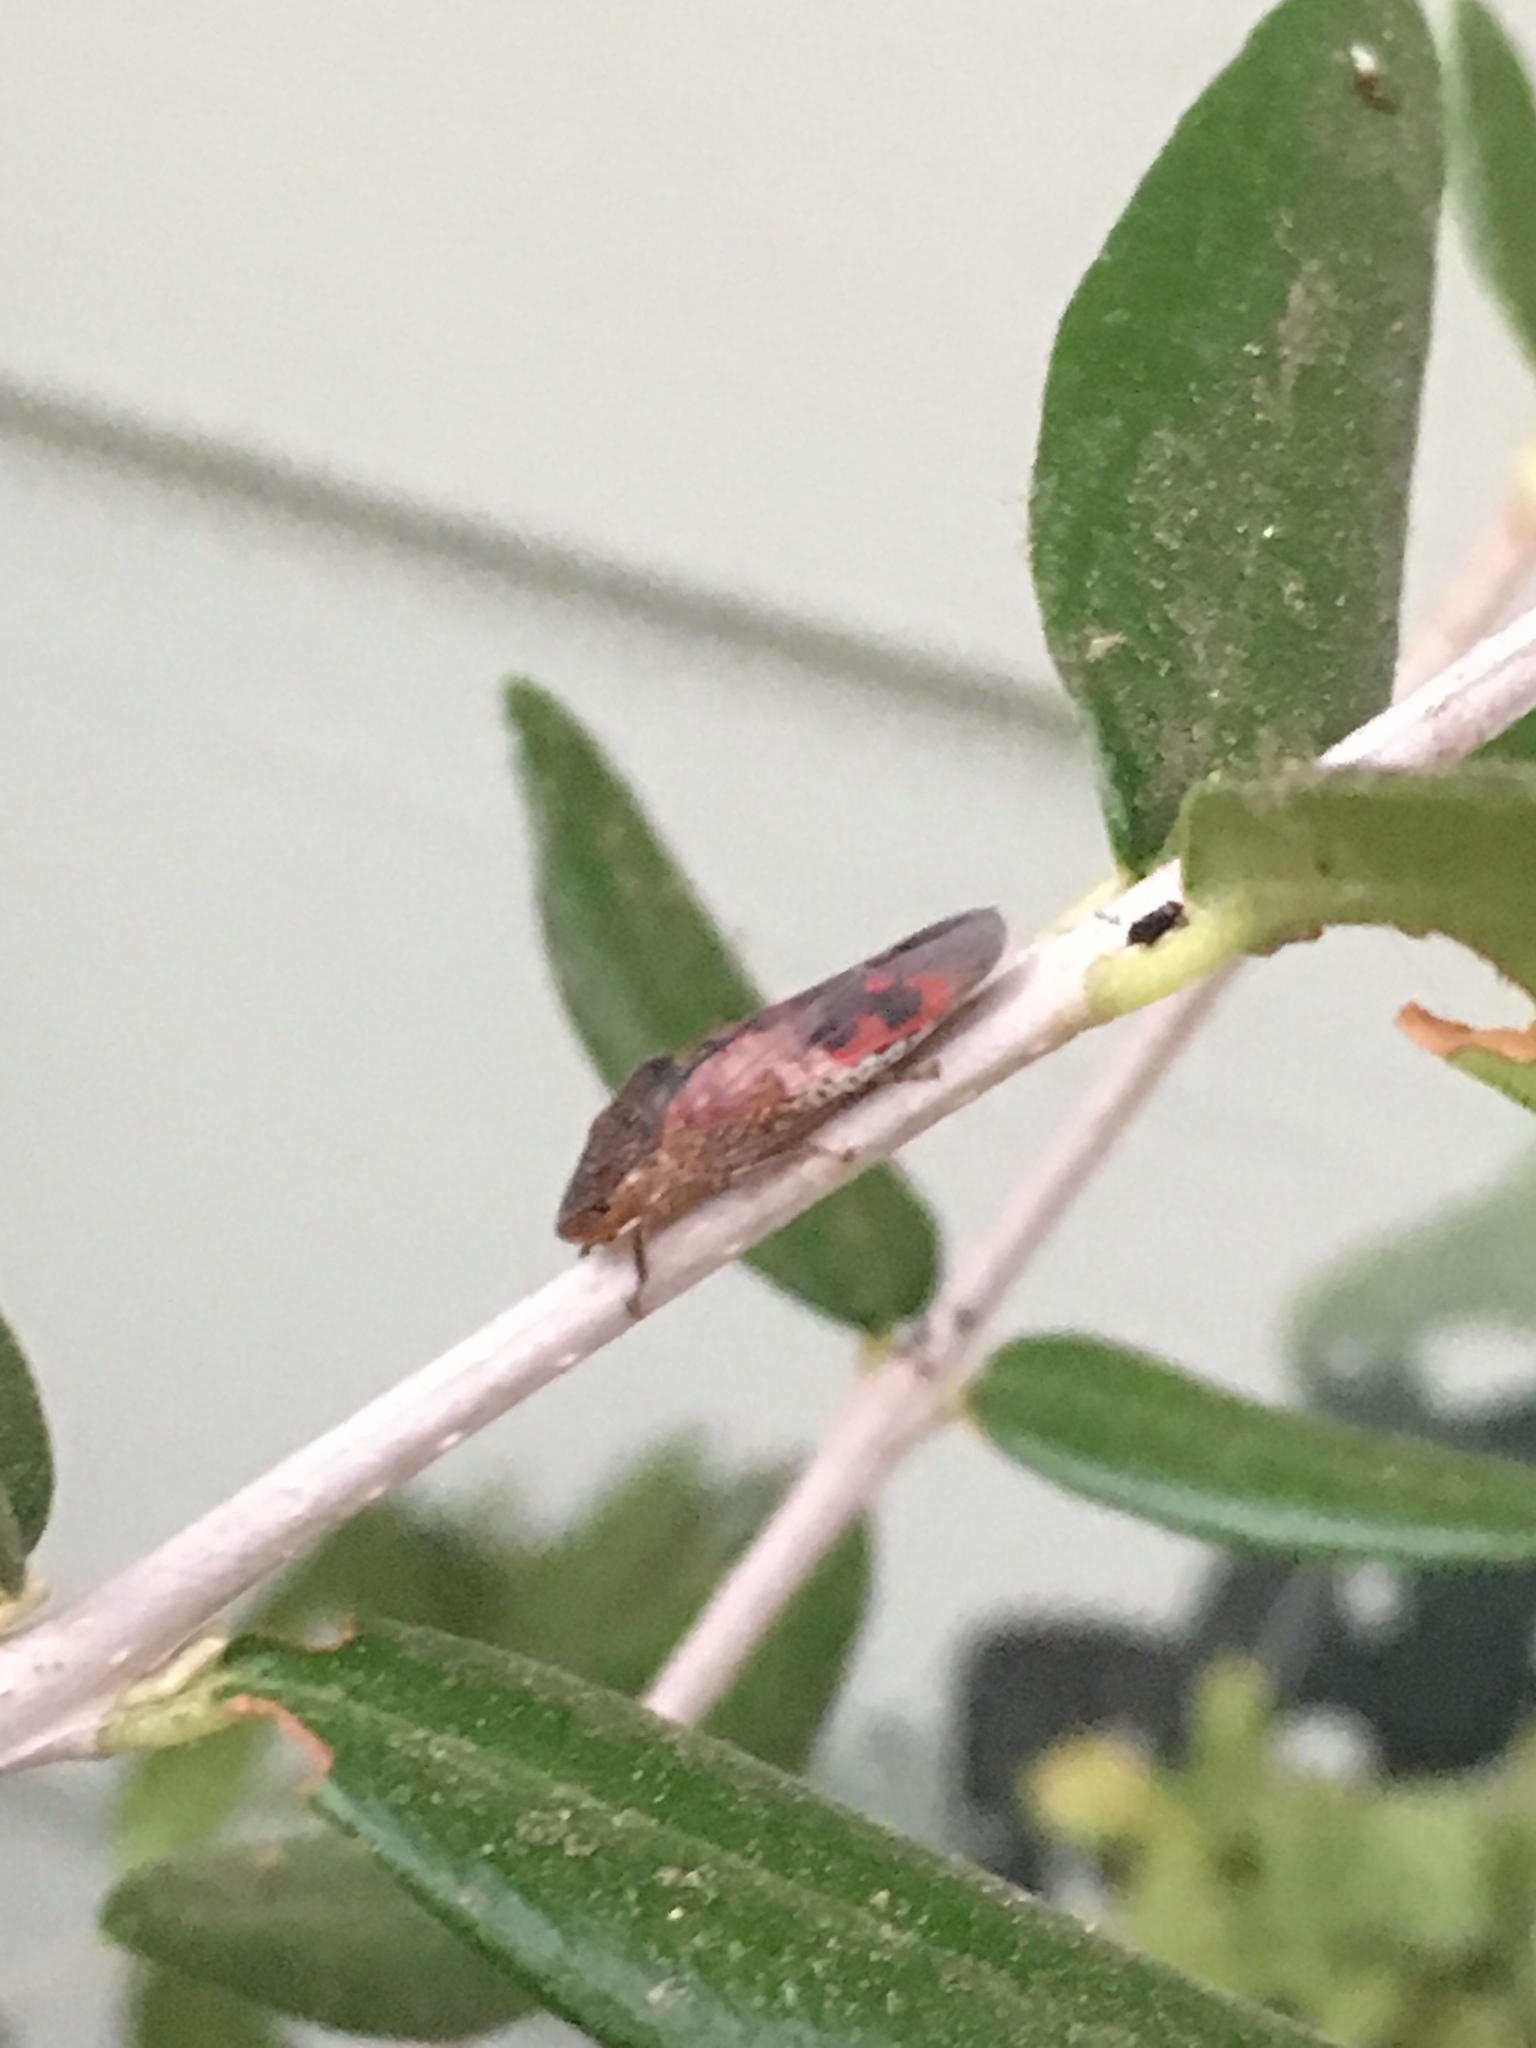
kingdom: Animalia
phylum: Arthropoda
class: Insecta
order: Hemiptera
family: Cicadellidae
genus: Homalodisca
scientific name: Homalodisca vitripennis
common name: Glassy-winged sharpshooter
